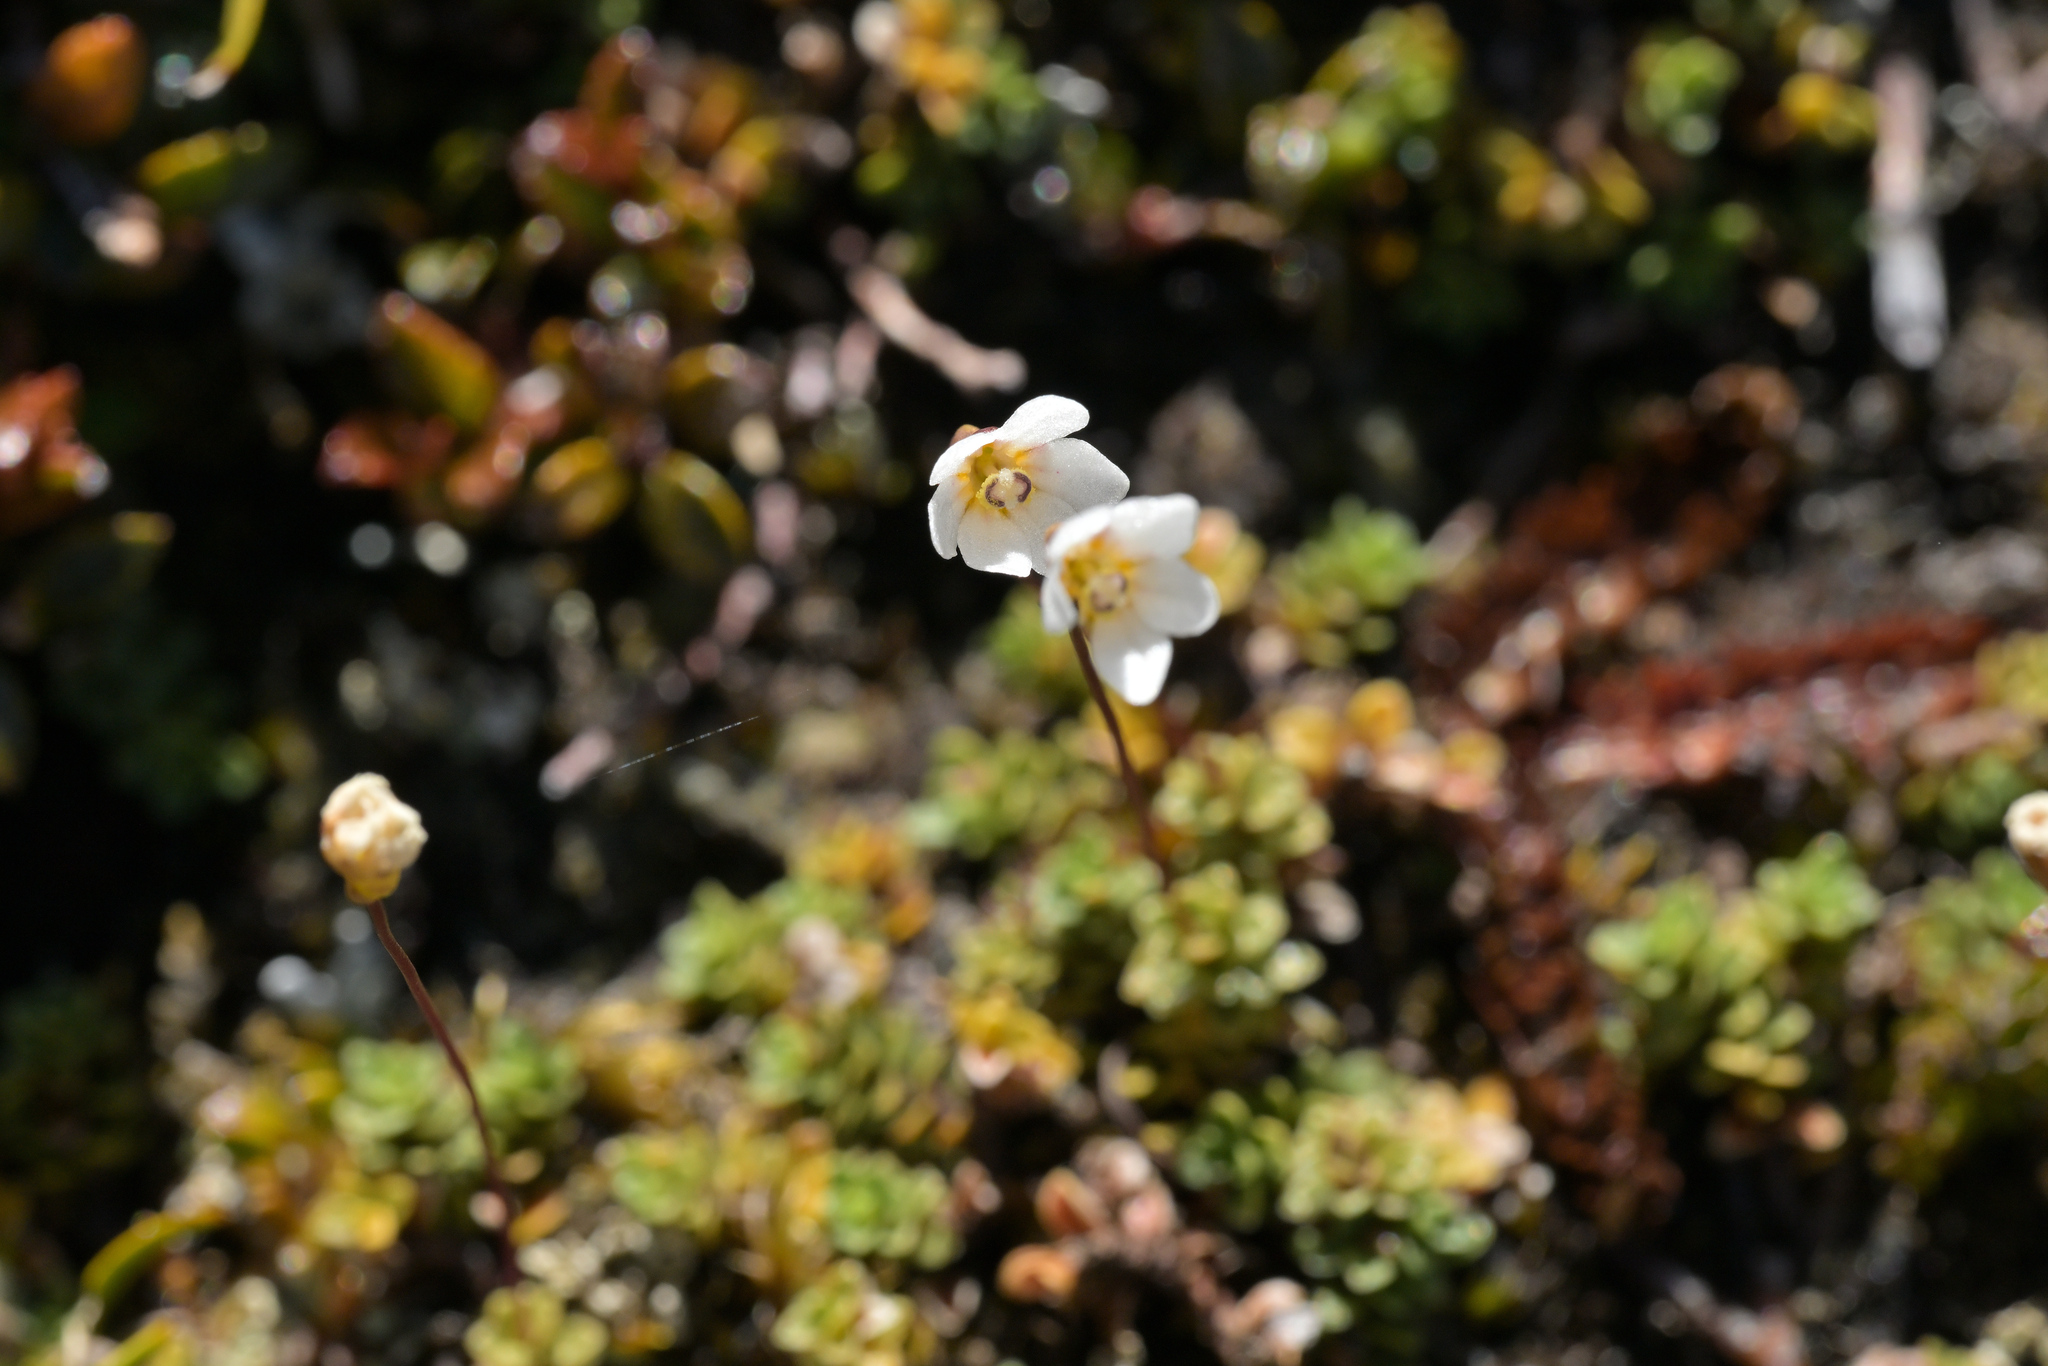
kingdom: Plantae
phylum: Tracheophyta
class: Magnoliopsida
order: Asterales
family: Stylidiaceae
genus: Forstera
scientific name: Forstera purpurata
